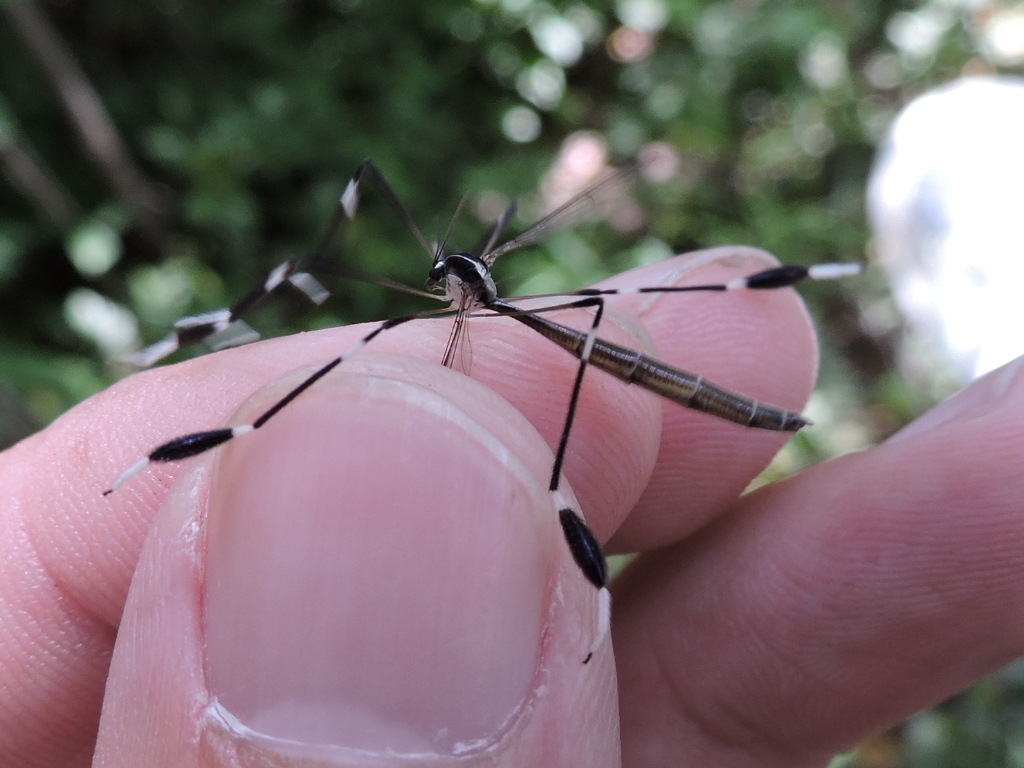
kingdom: Animalia
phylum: Arthropoda
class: Insecta
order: Diptera
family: Ptychopteridae
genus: Bittacomorpha
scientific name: Bittacomorpha clavipes
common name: Eastern phantom crane fly
